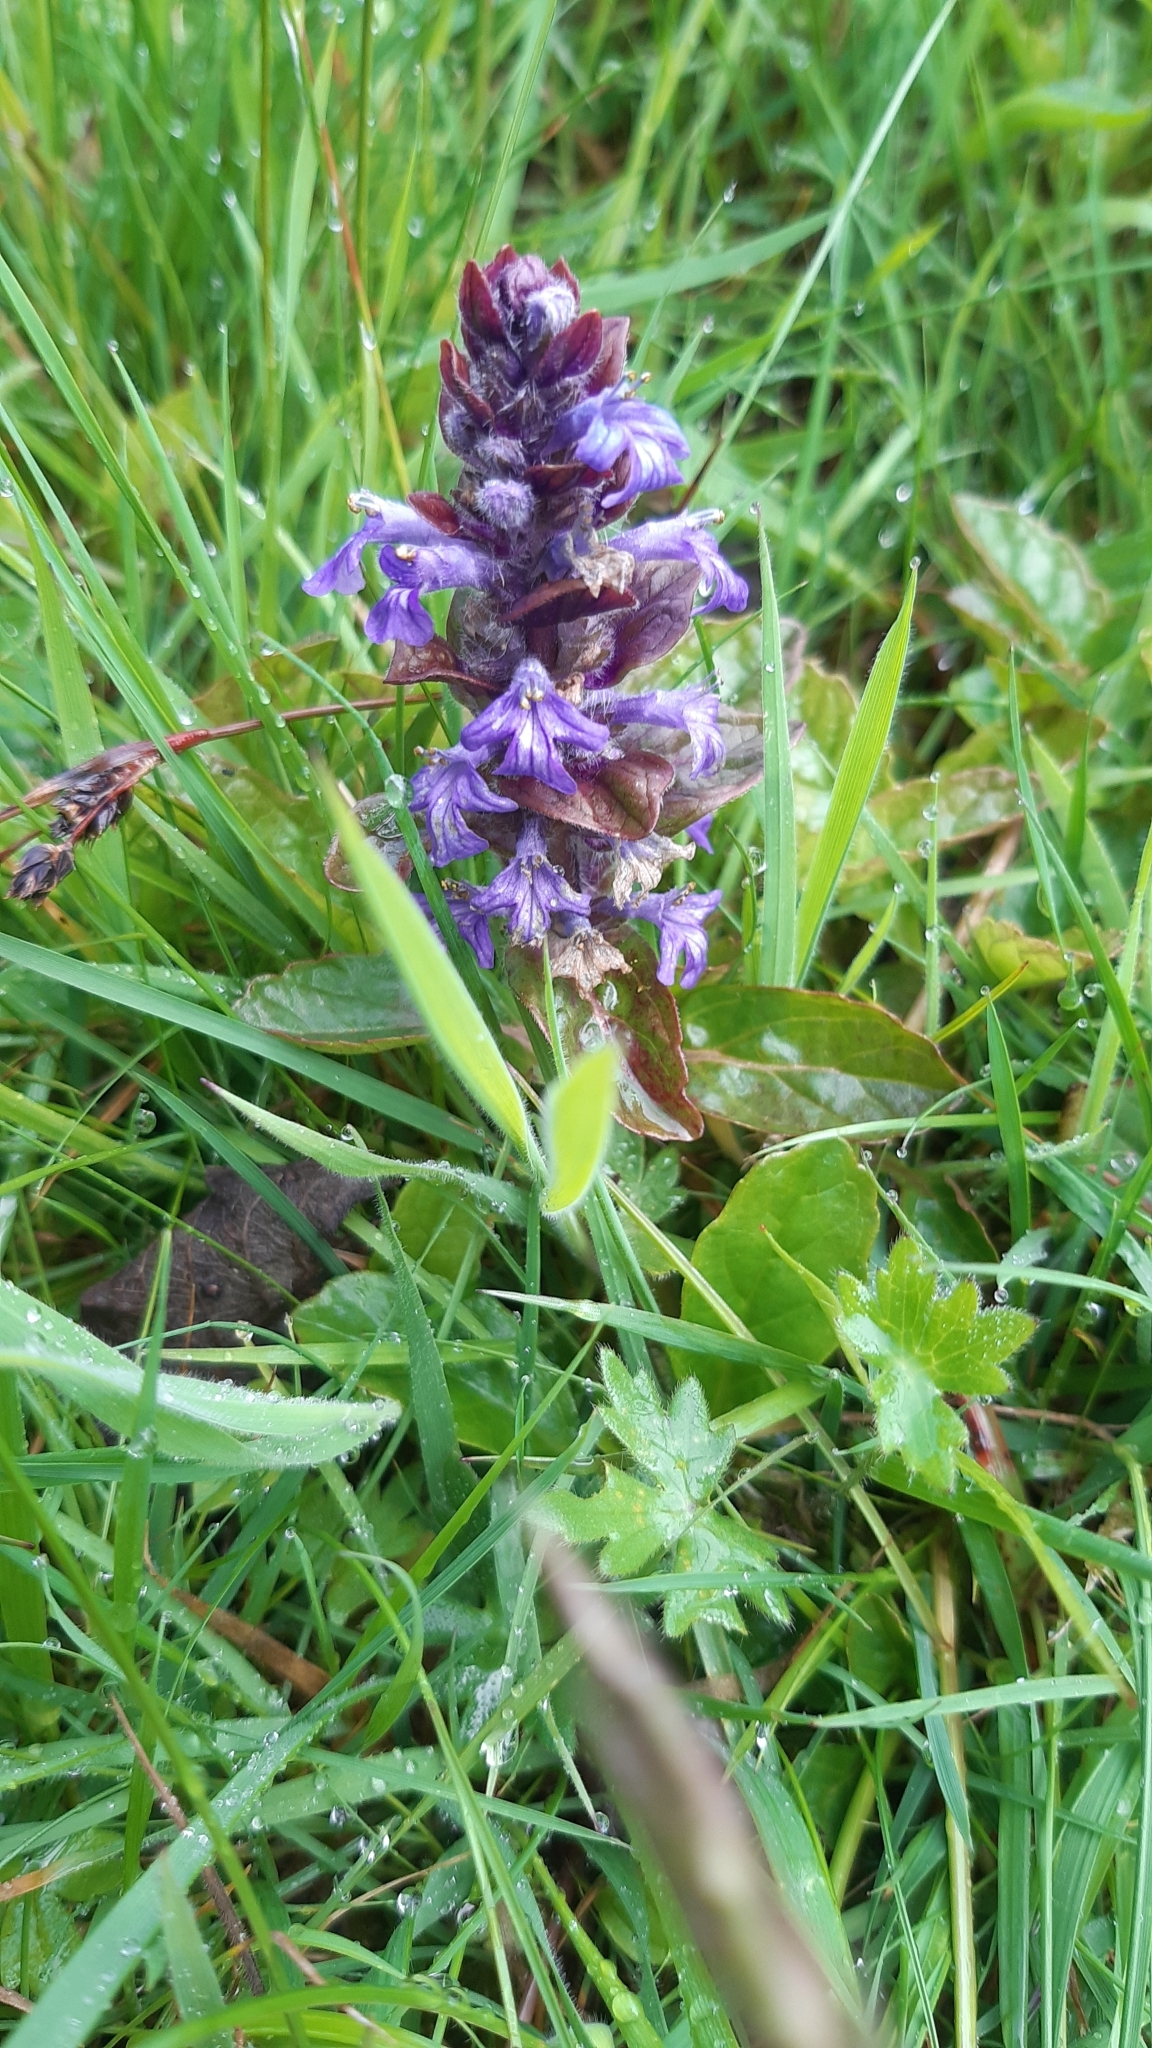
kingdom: Plantae
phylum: Tracheophyta
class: Magnoliopsida
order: Lamiales
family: Lamiaceae
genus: Ajuga
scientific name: Ajuga reptans
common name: Bugle
